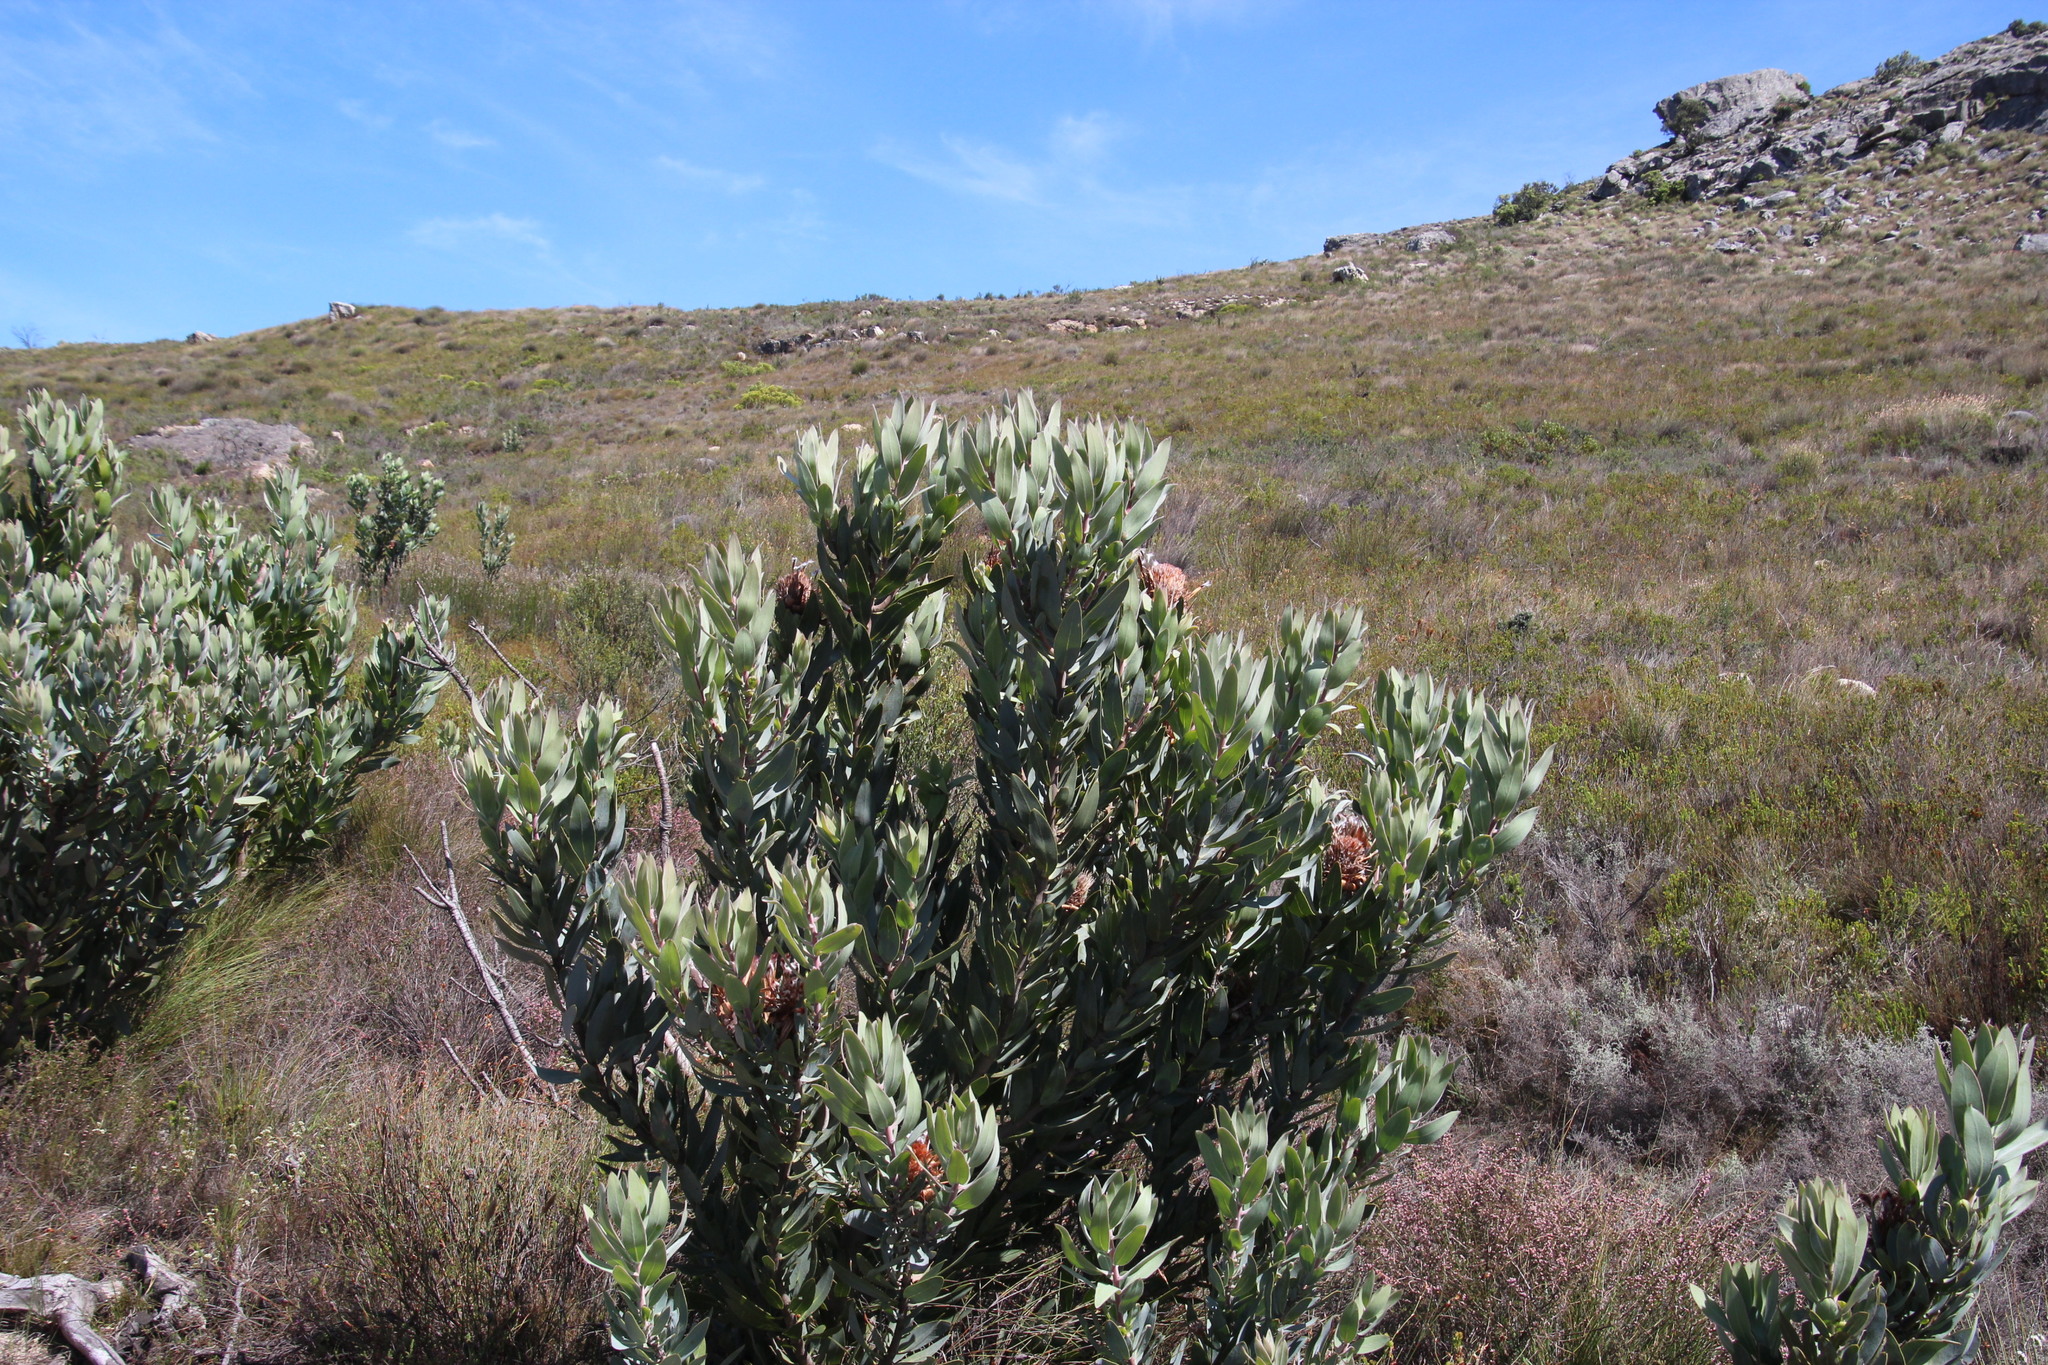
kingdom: Plantae
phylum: Tracheophyta
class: Magnoliopsida
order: Proteales
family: Proteaceae
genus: Protea
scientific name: Protea laurifolia
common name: Grey-leaf sugarbsh
